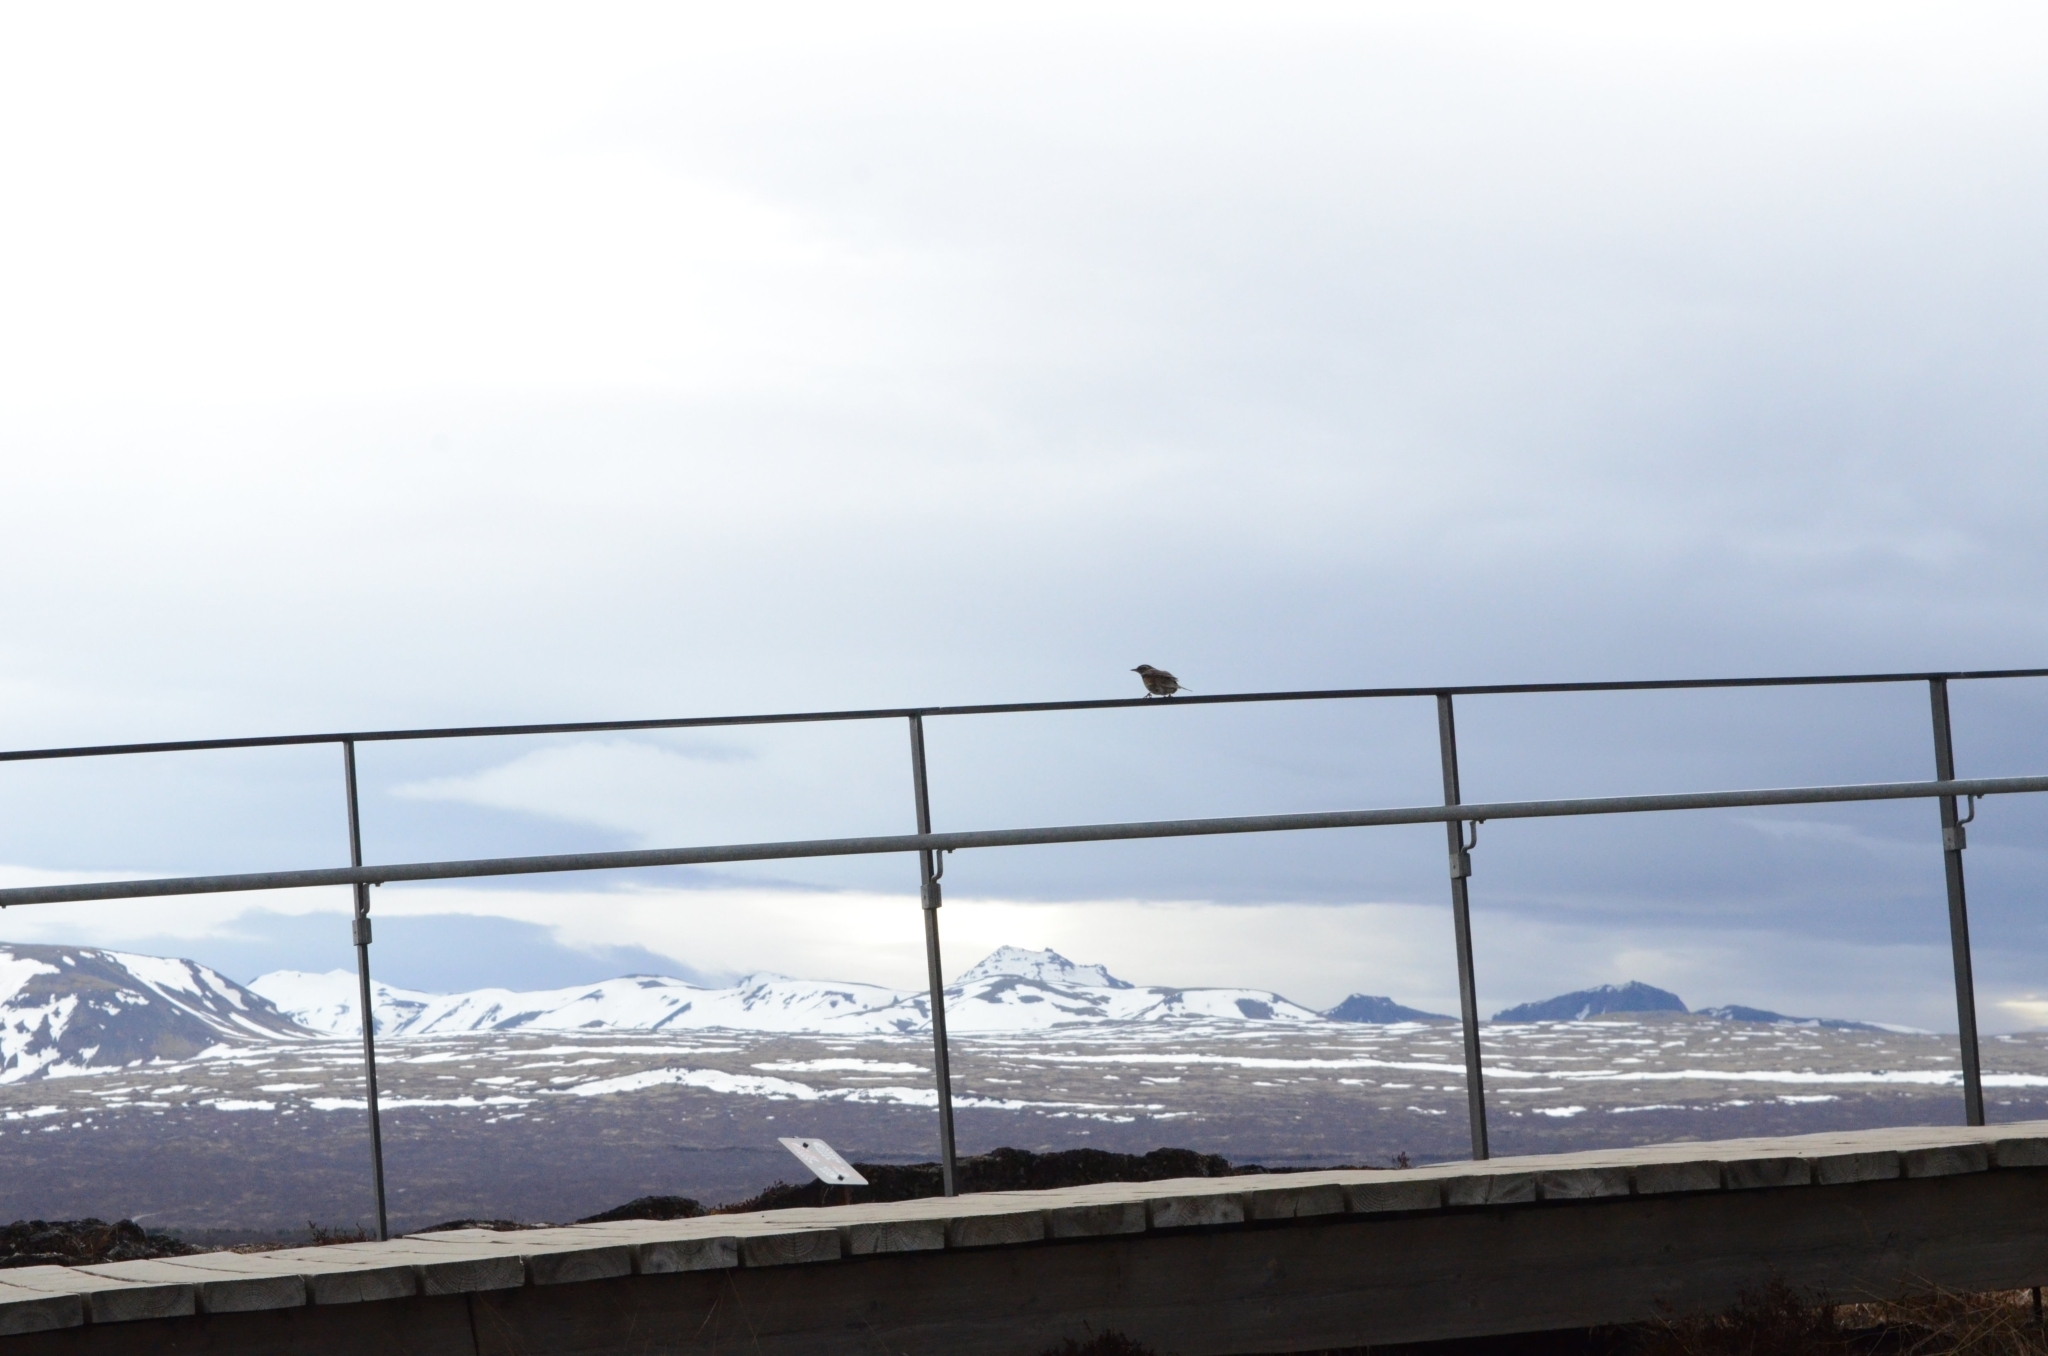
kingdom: Animalia
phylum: Chordata
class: Aves
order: Passeriformes
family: Turdidae
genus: Turdus
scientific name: Turdus iliacus
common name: Redwing
